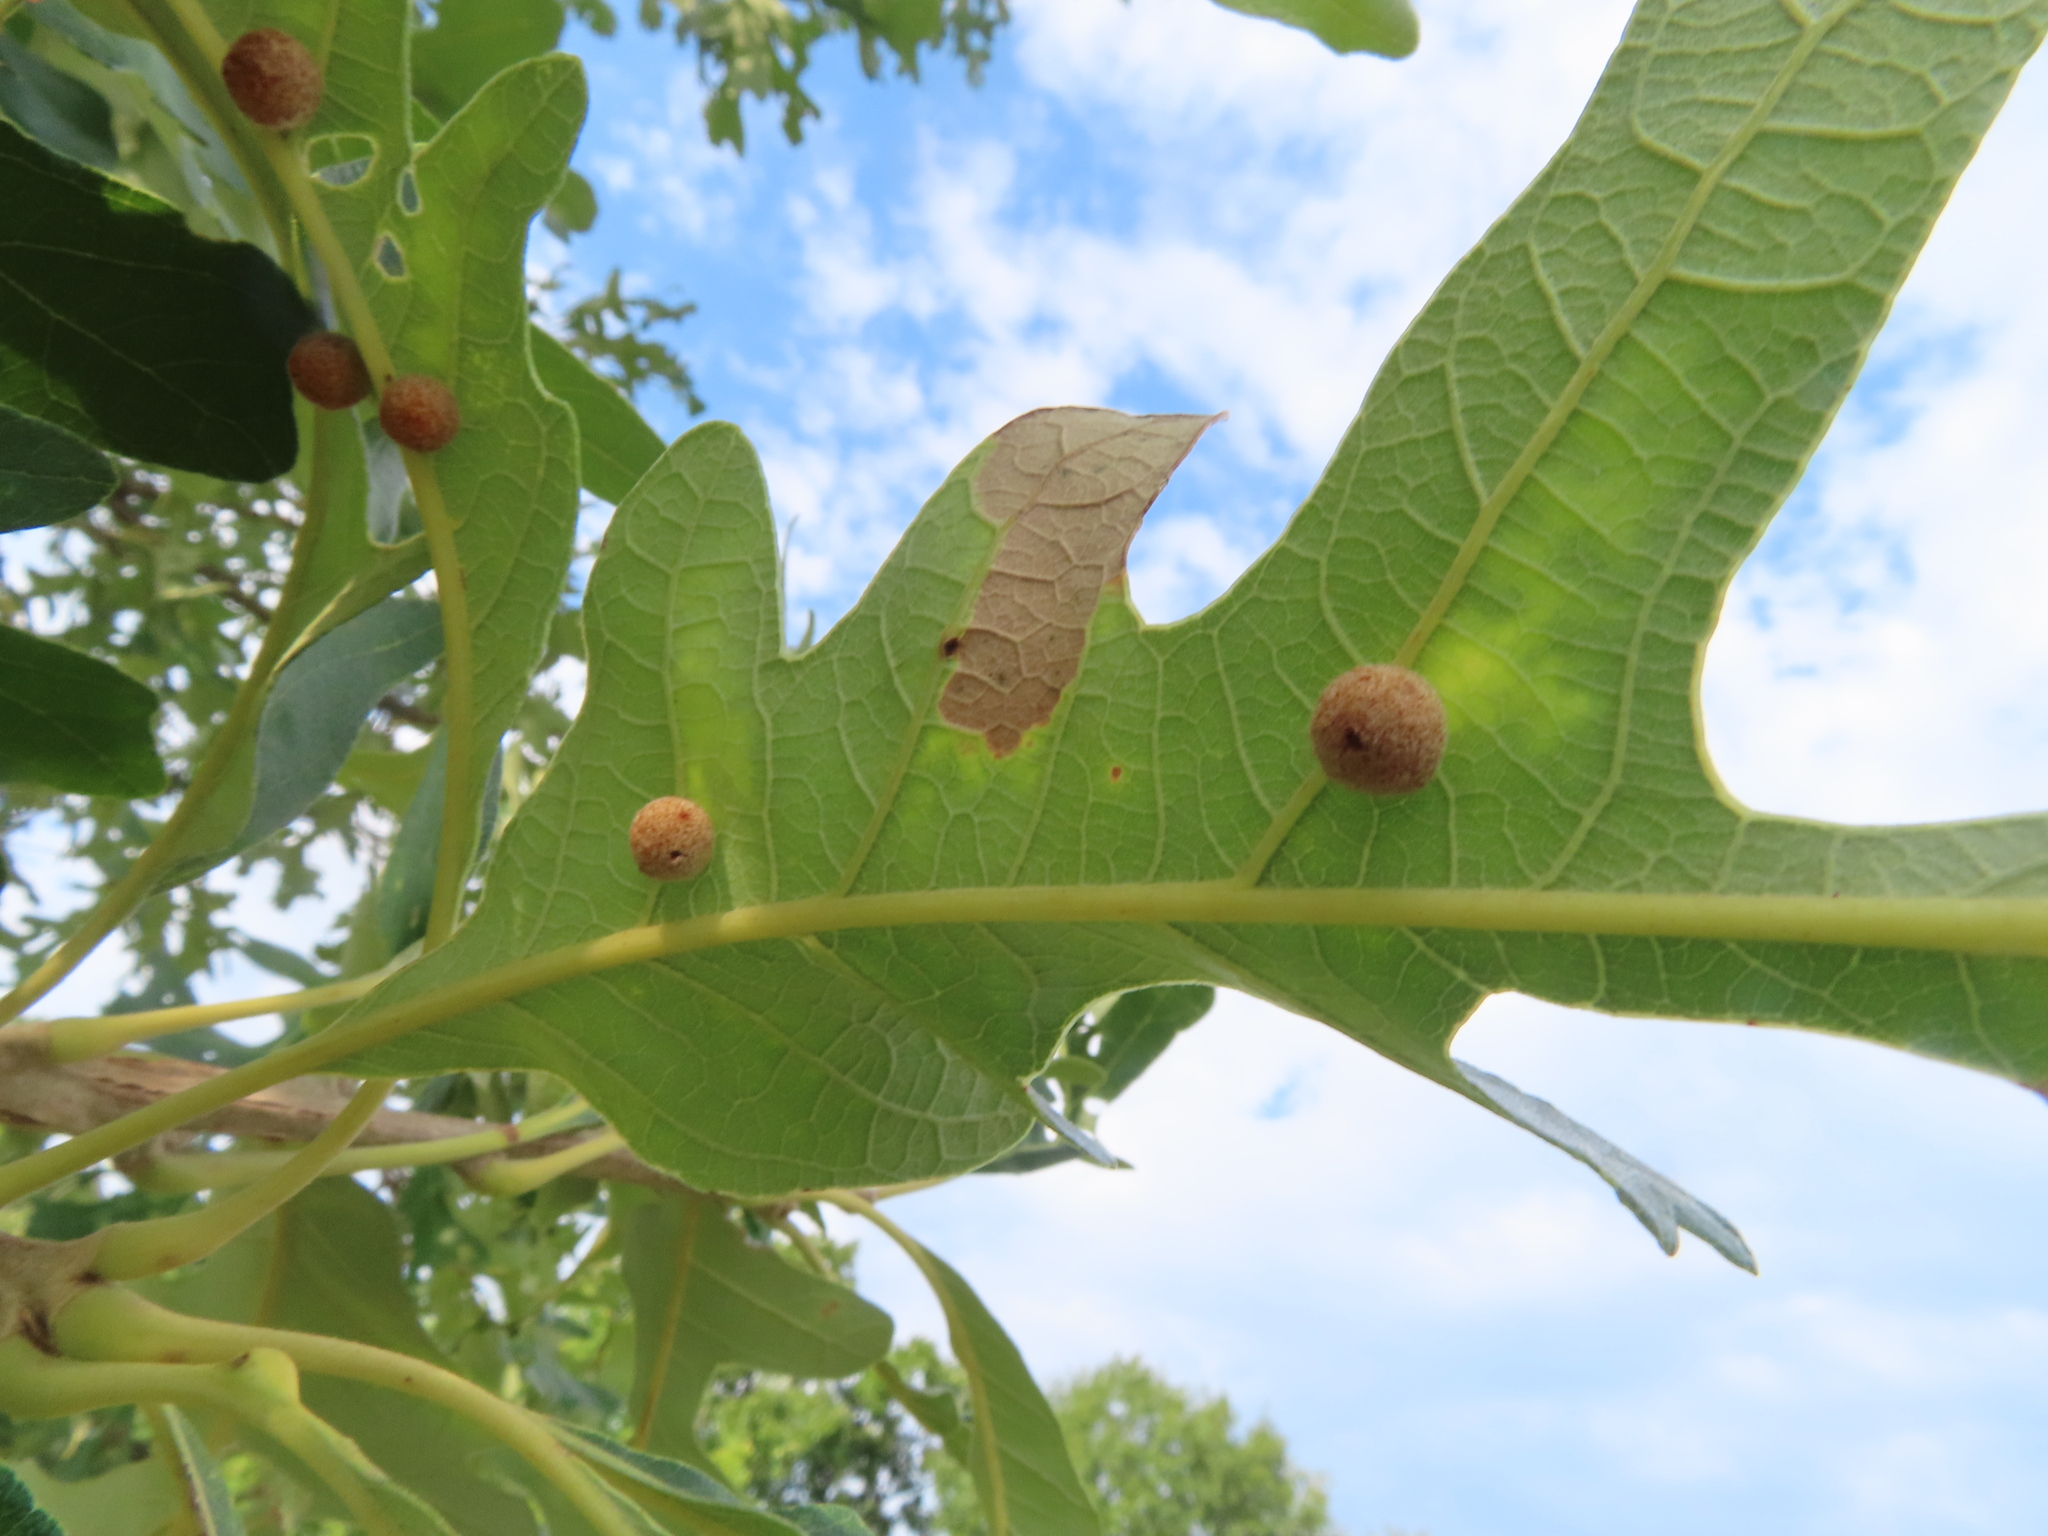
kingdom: Animalia
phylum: Arthropoda
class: Insecta
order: Hymenoptera
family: Cynipidae
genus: Philonix
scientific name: Philonix fulvicollis
